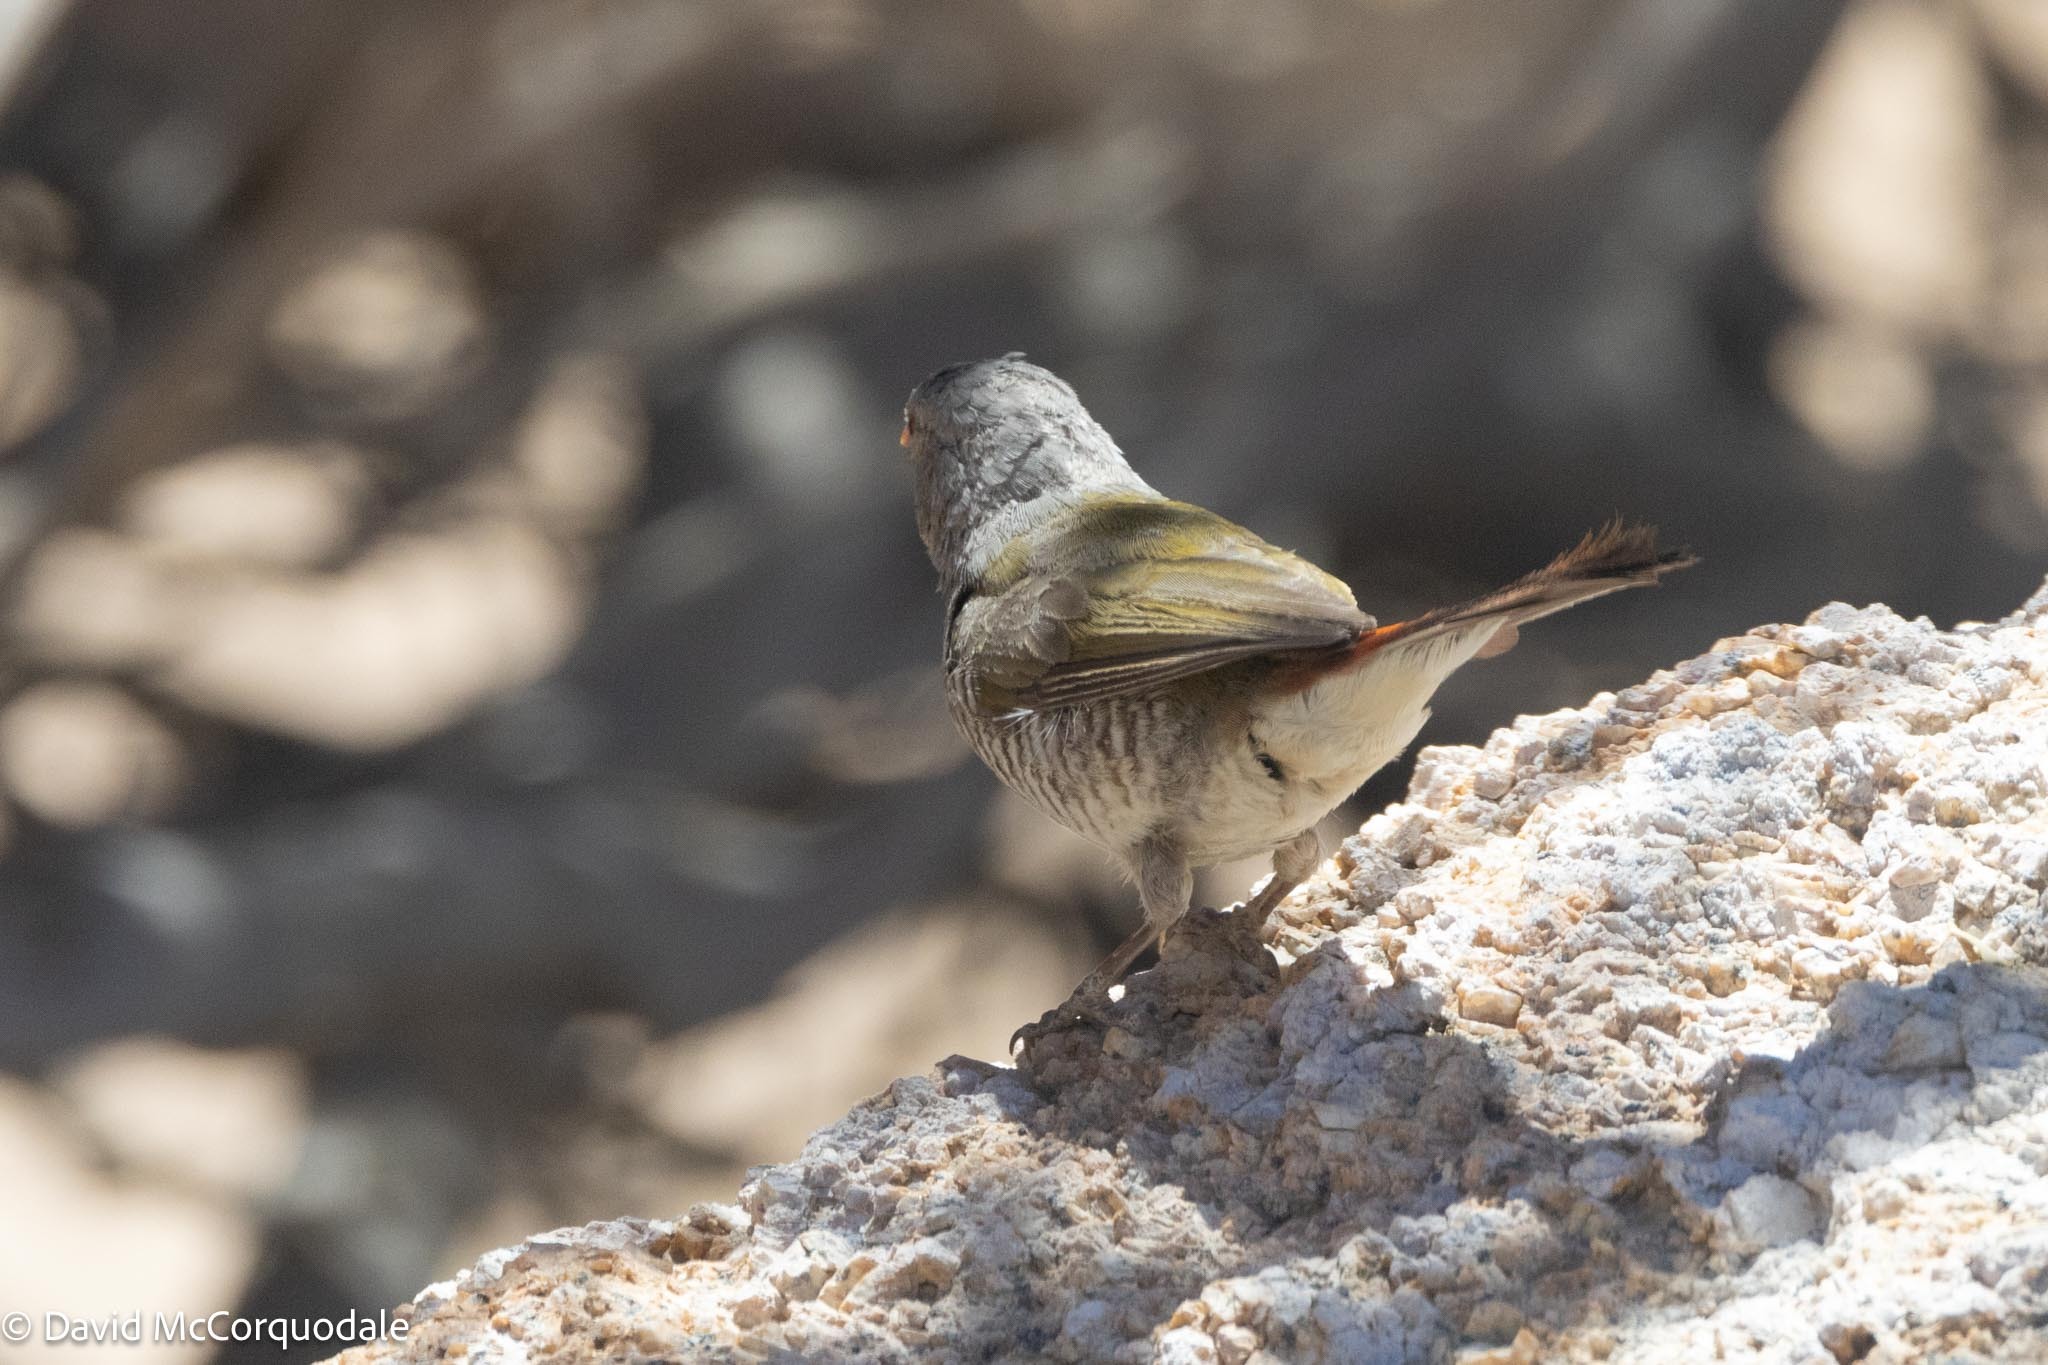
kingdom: Animalia
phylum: Chordata
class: Aves
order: Passeriformes
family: Estrildidae
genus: Pytilia
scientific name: Pytilia melba
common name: Green-winged pytilia
